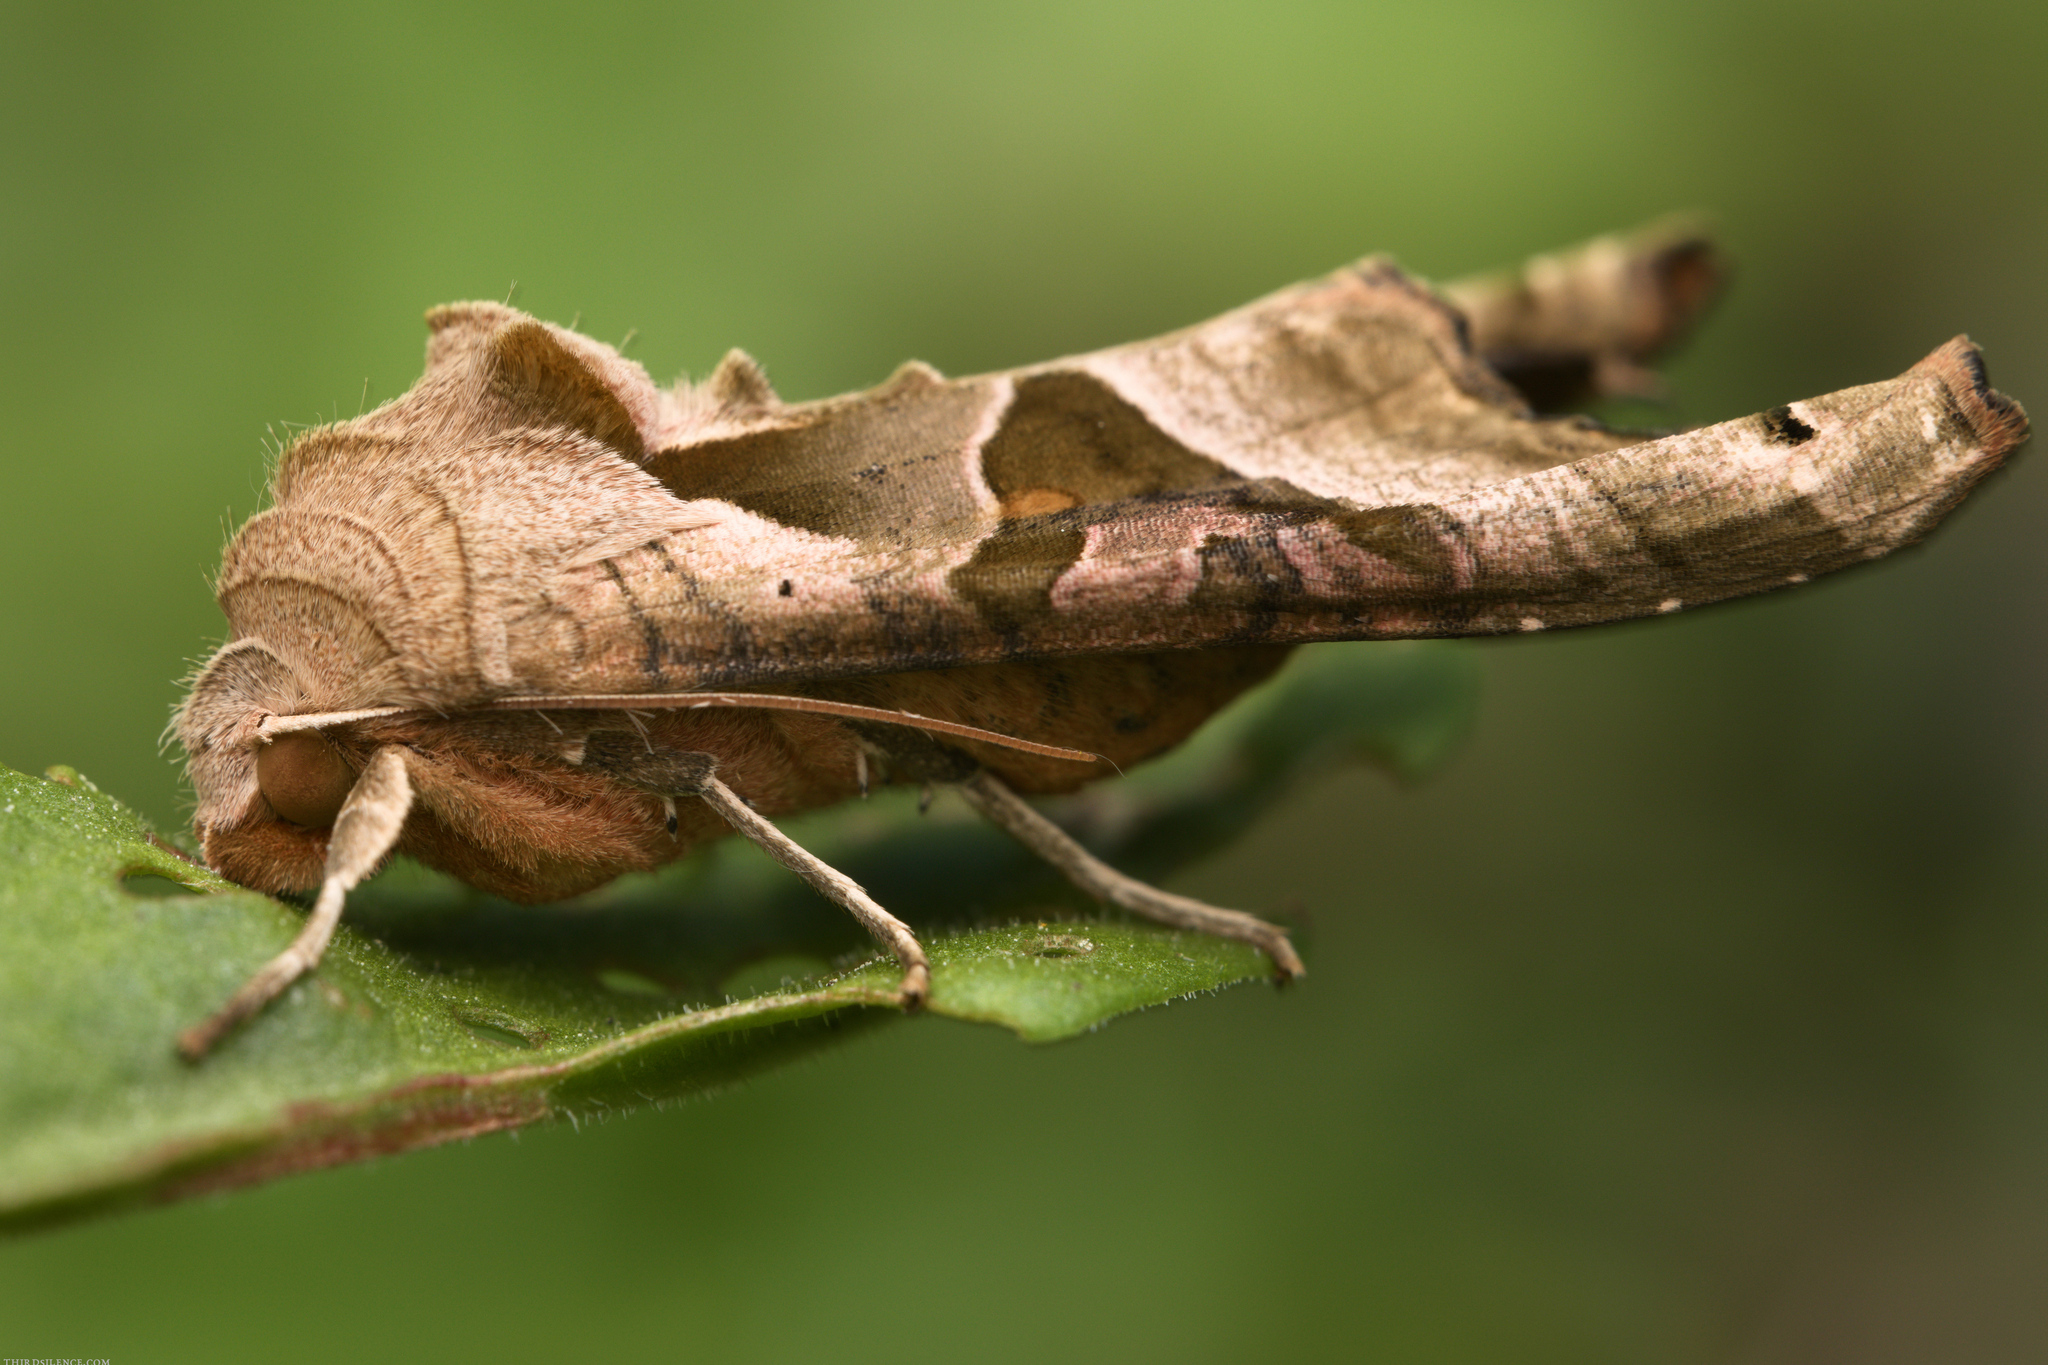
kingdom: Animalia
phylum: Arthropoda
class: Insecta
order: Lepidoptera
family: Noctuidae
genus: Phlogophora
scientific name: Phlogophora meticulosa
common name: Angle shades
